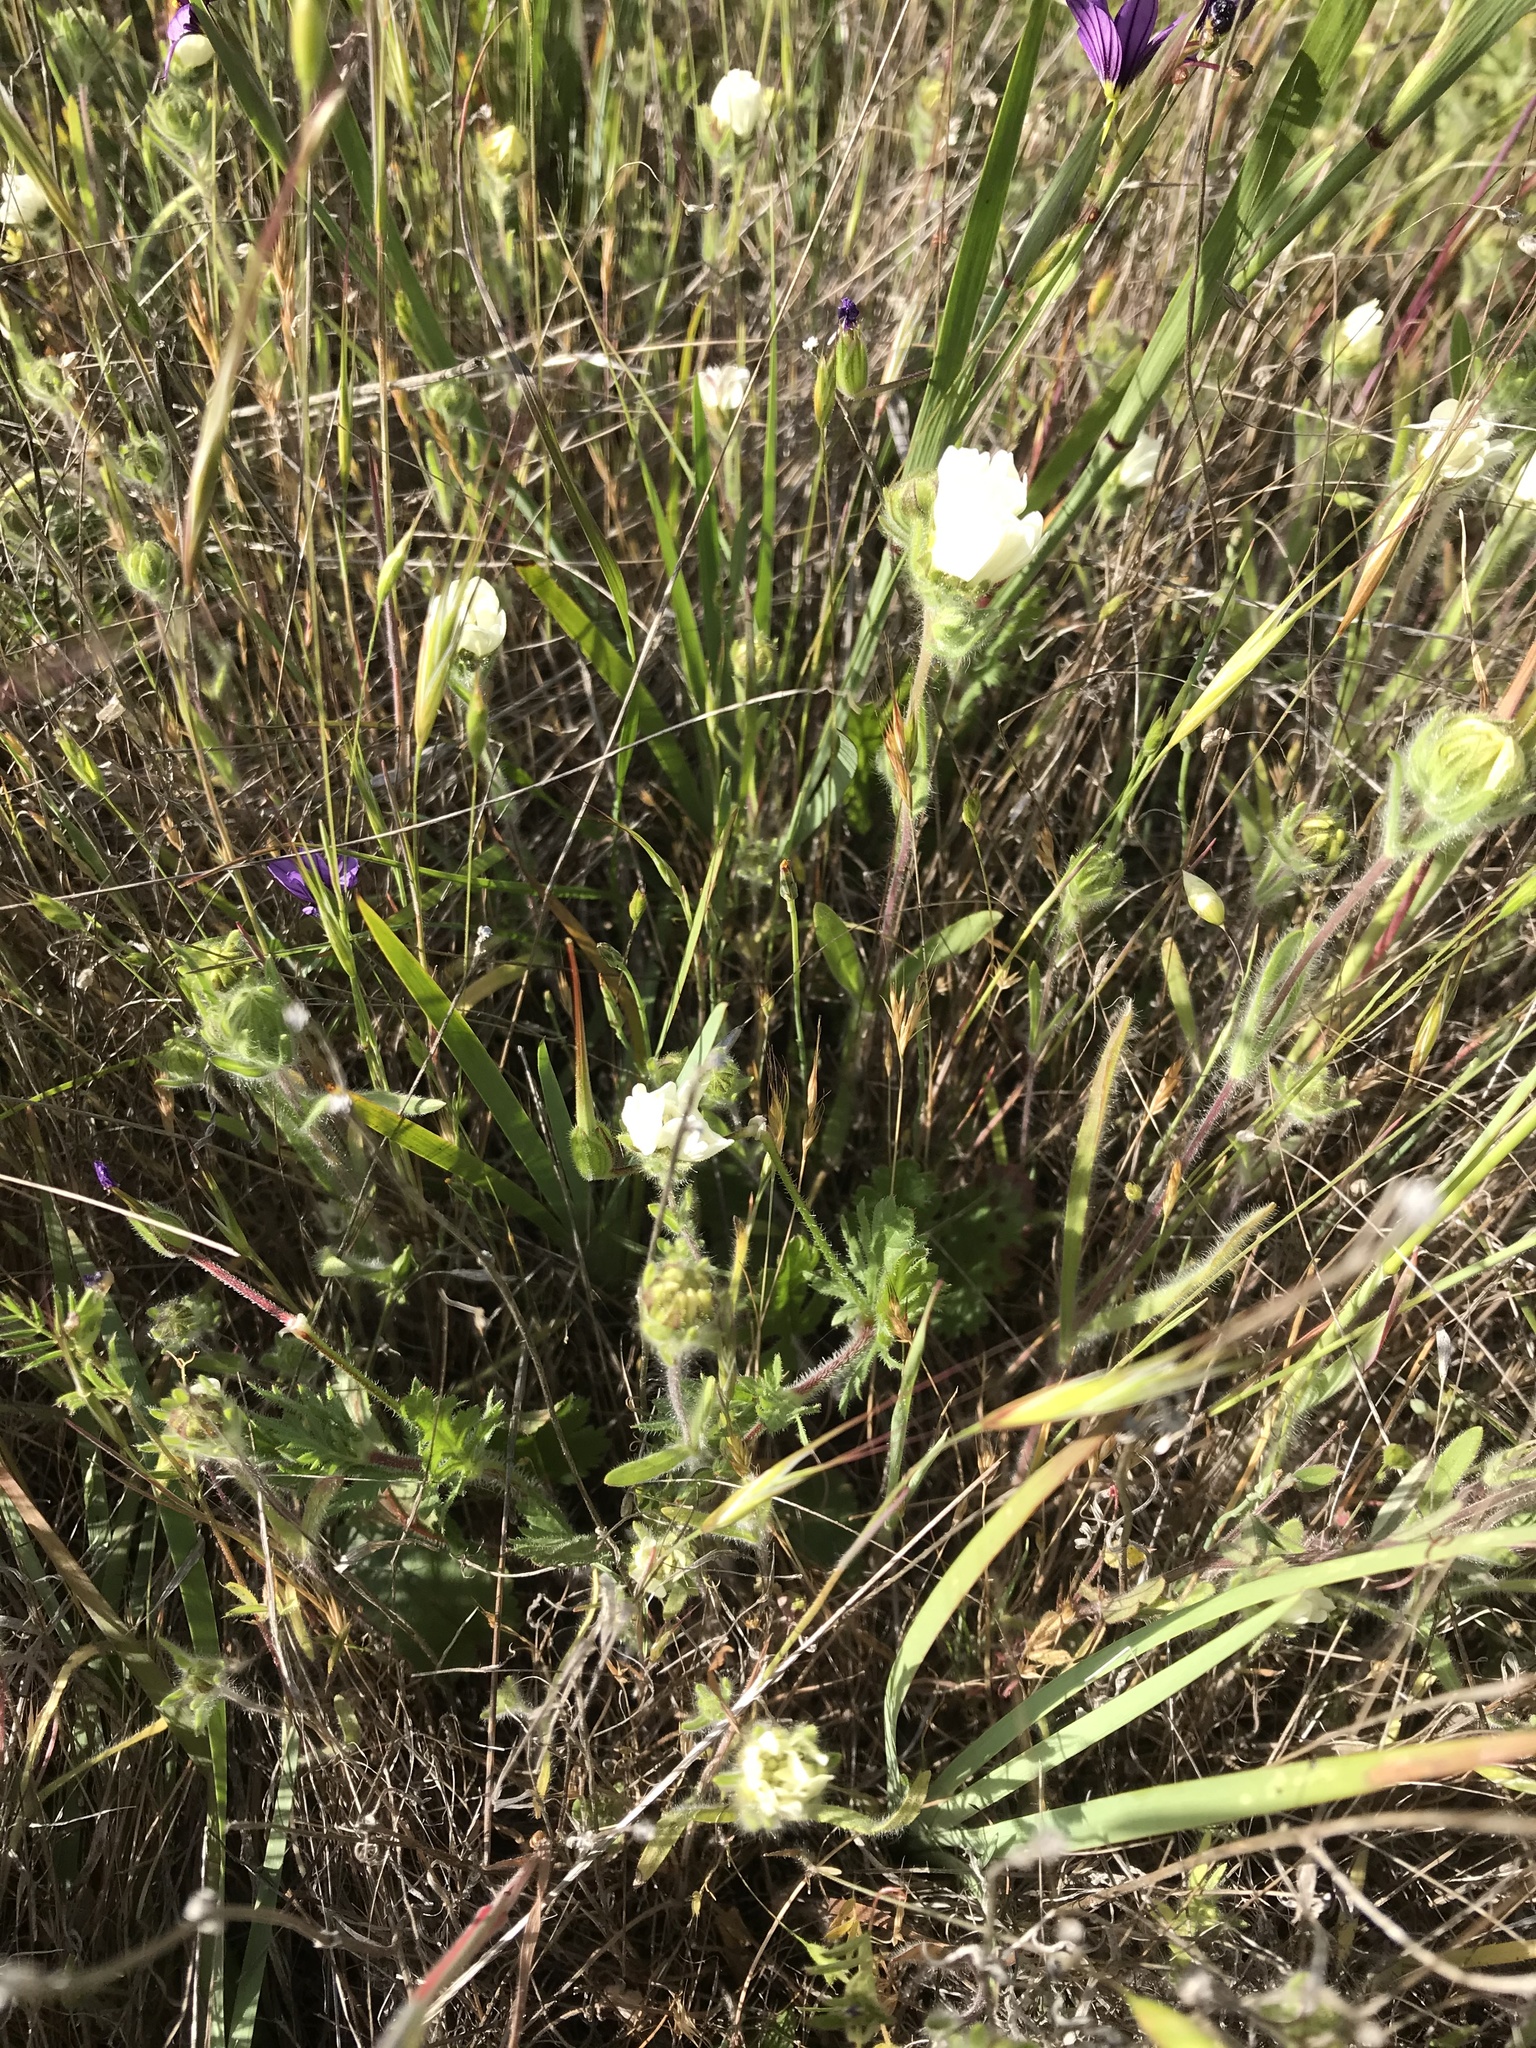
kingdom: Plantae
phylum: Tracheophyta
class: Magnoliopsida
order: Asterales
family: Asteraceae
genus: Hemizonia
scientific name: Hemizonia congesta
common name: Hayfield tarweed
